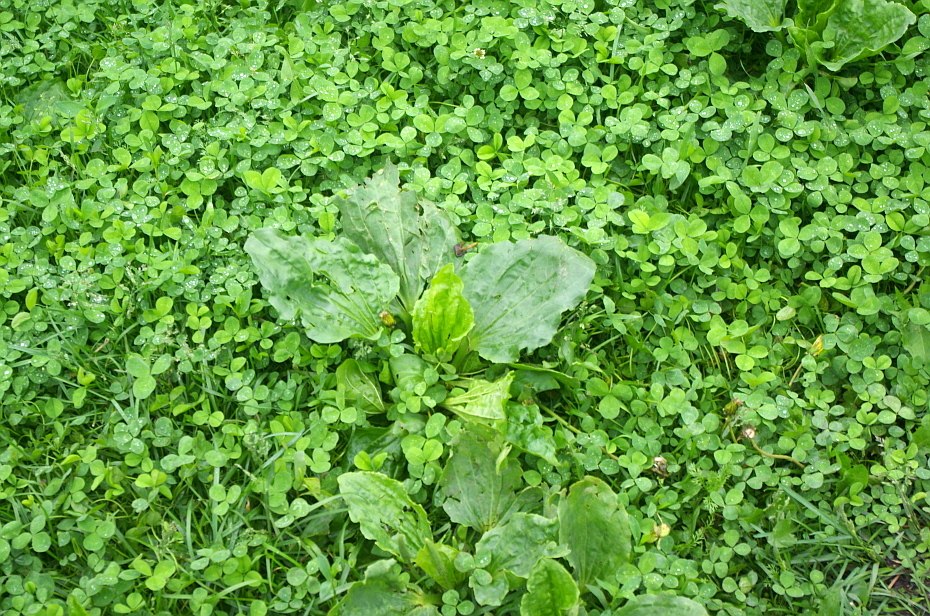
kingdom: Plantae
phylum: Tracheophyta
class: Magnoliopsida
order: Fabales
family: Fabaceae
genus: Trifolium
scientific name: Trifolium repens
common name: White clover
